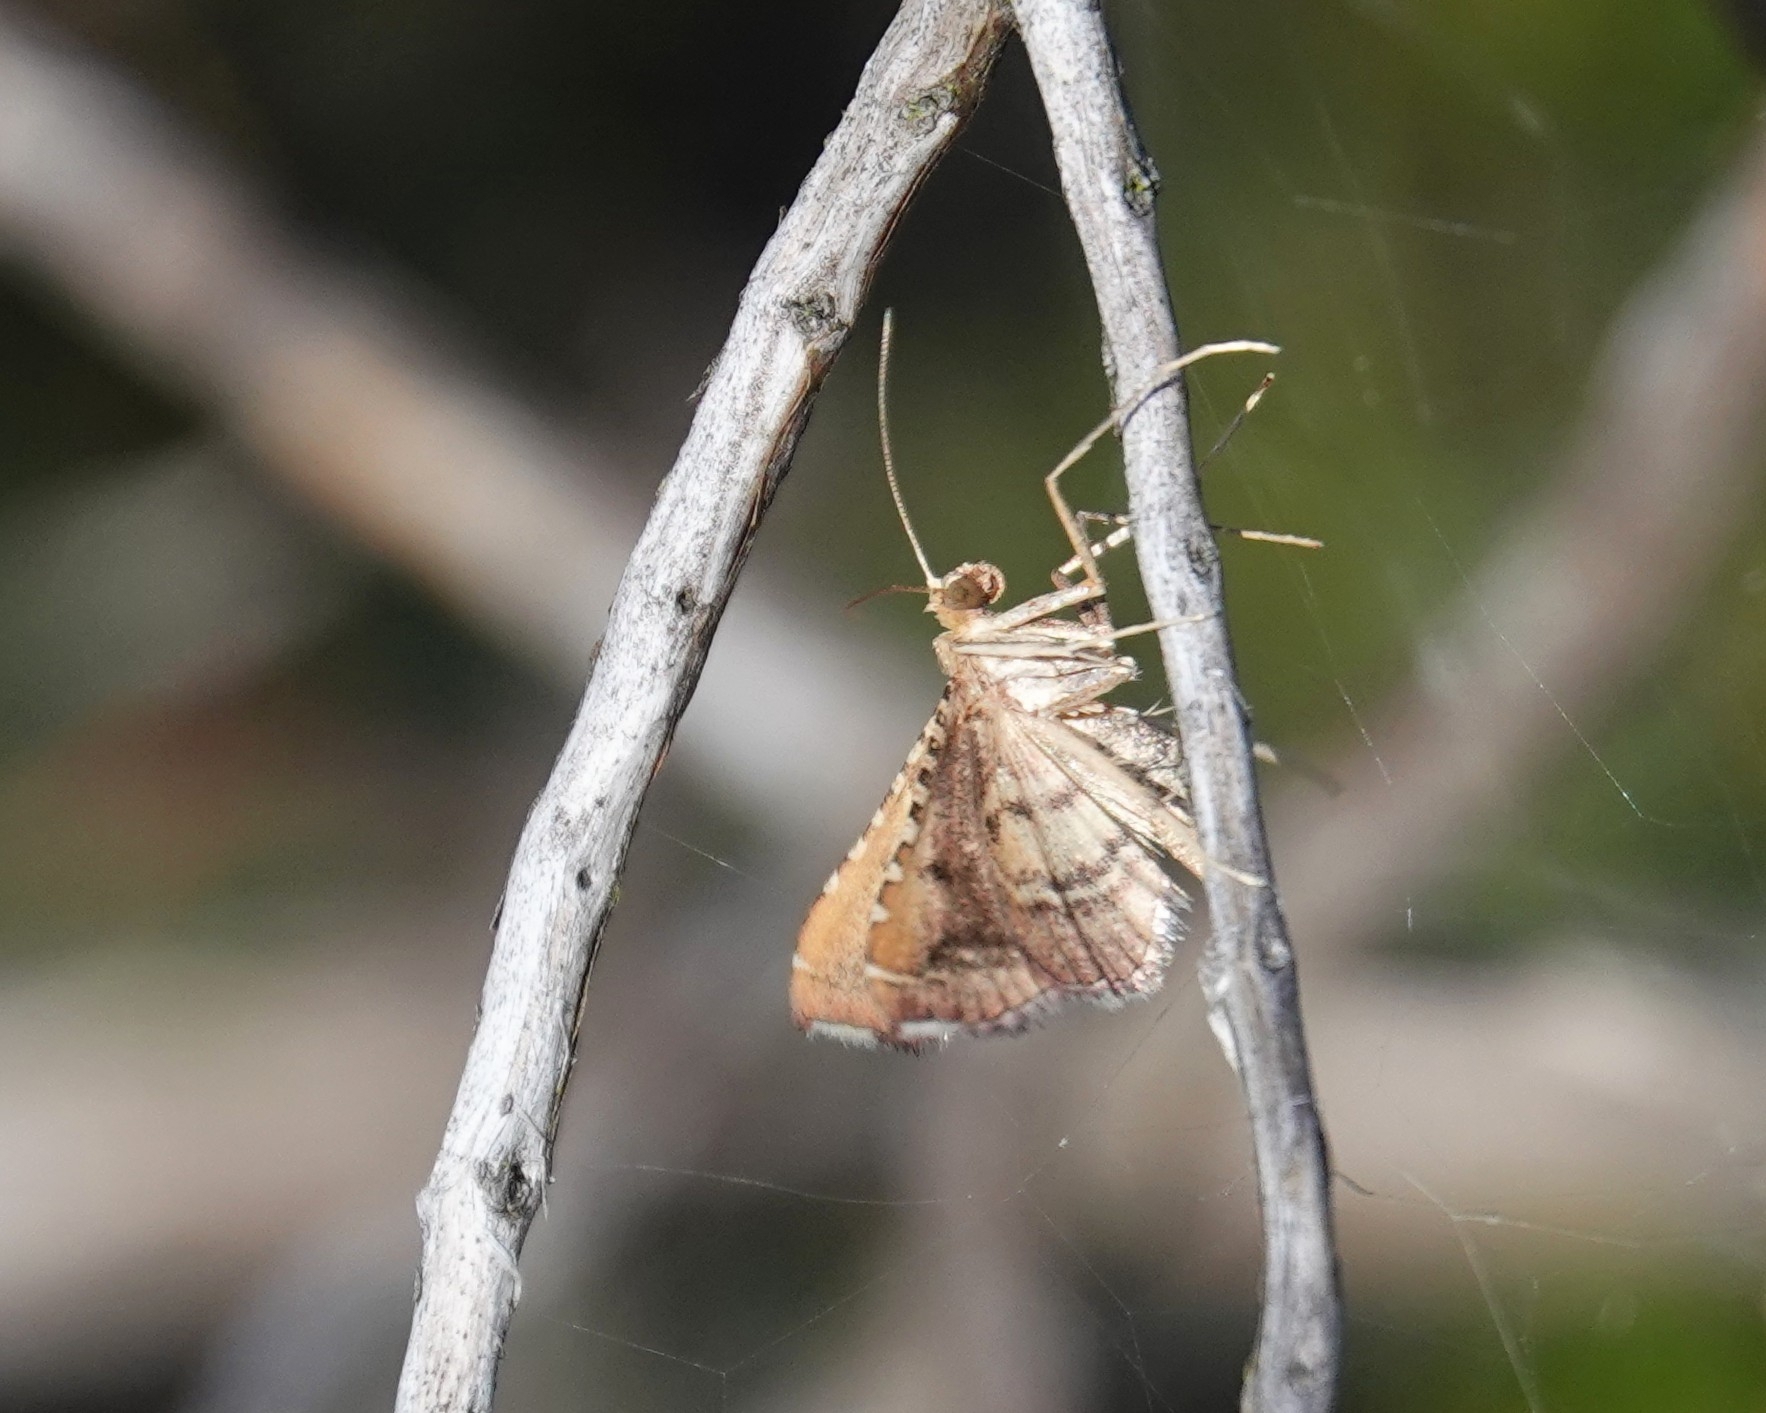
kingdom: Animalia
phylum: Arthropoda
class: Insecta
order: Lepidoptera
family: Pyralidae
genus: Endotricha
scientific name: Endotricha flammealis
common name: Rosy tabby
